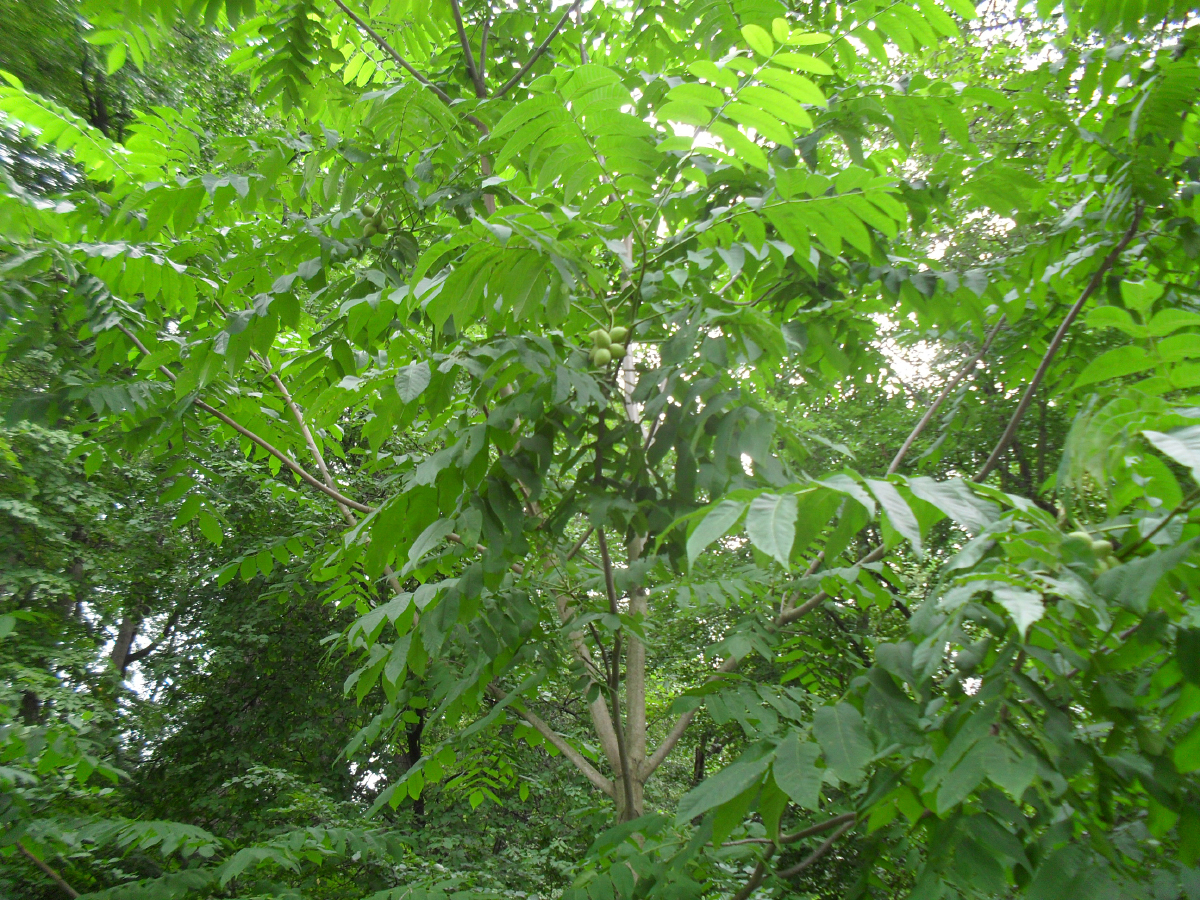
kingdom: Plantae
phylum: Tracheophyta
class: Magnoliopsida
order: Fagales
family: Juglandaceae
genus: Juglans
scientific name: Juglans mandshurica
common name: Manchurian walnut
